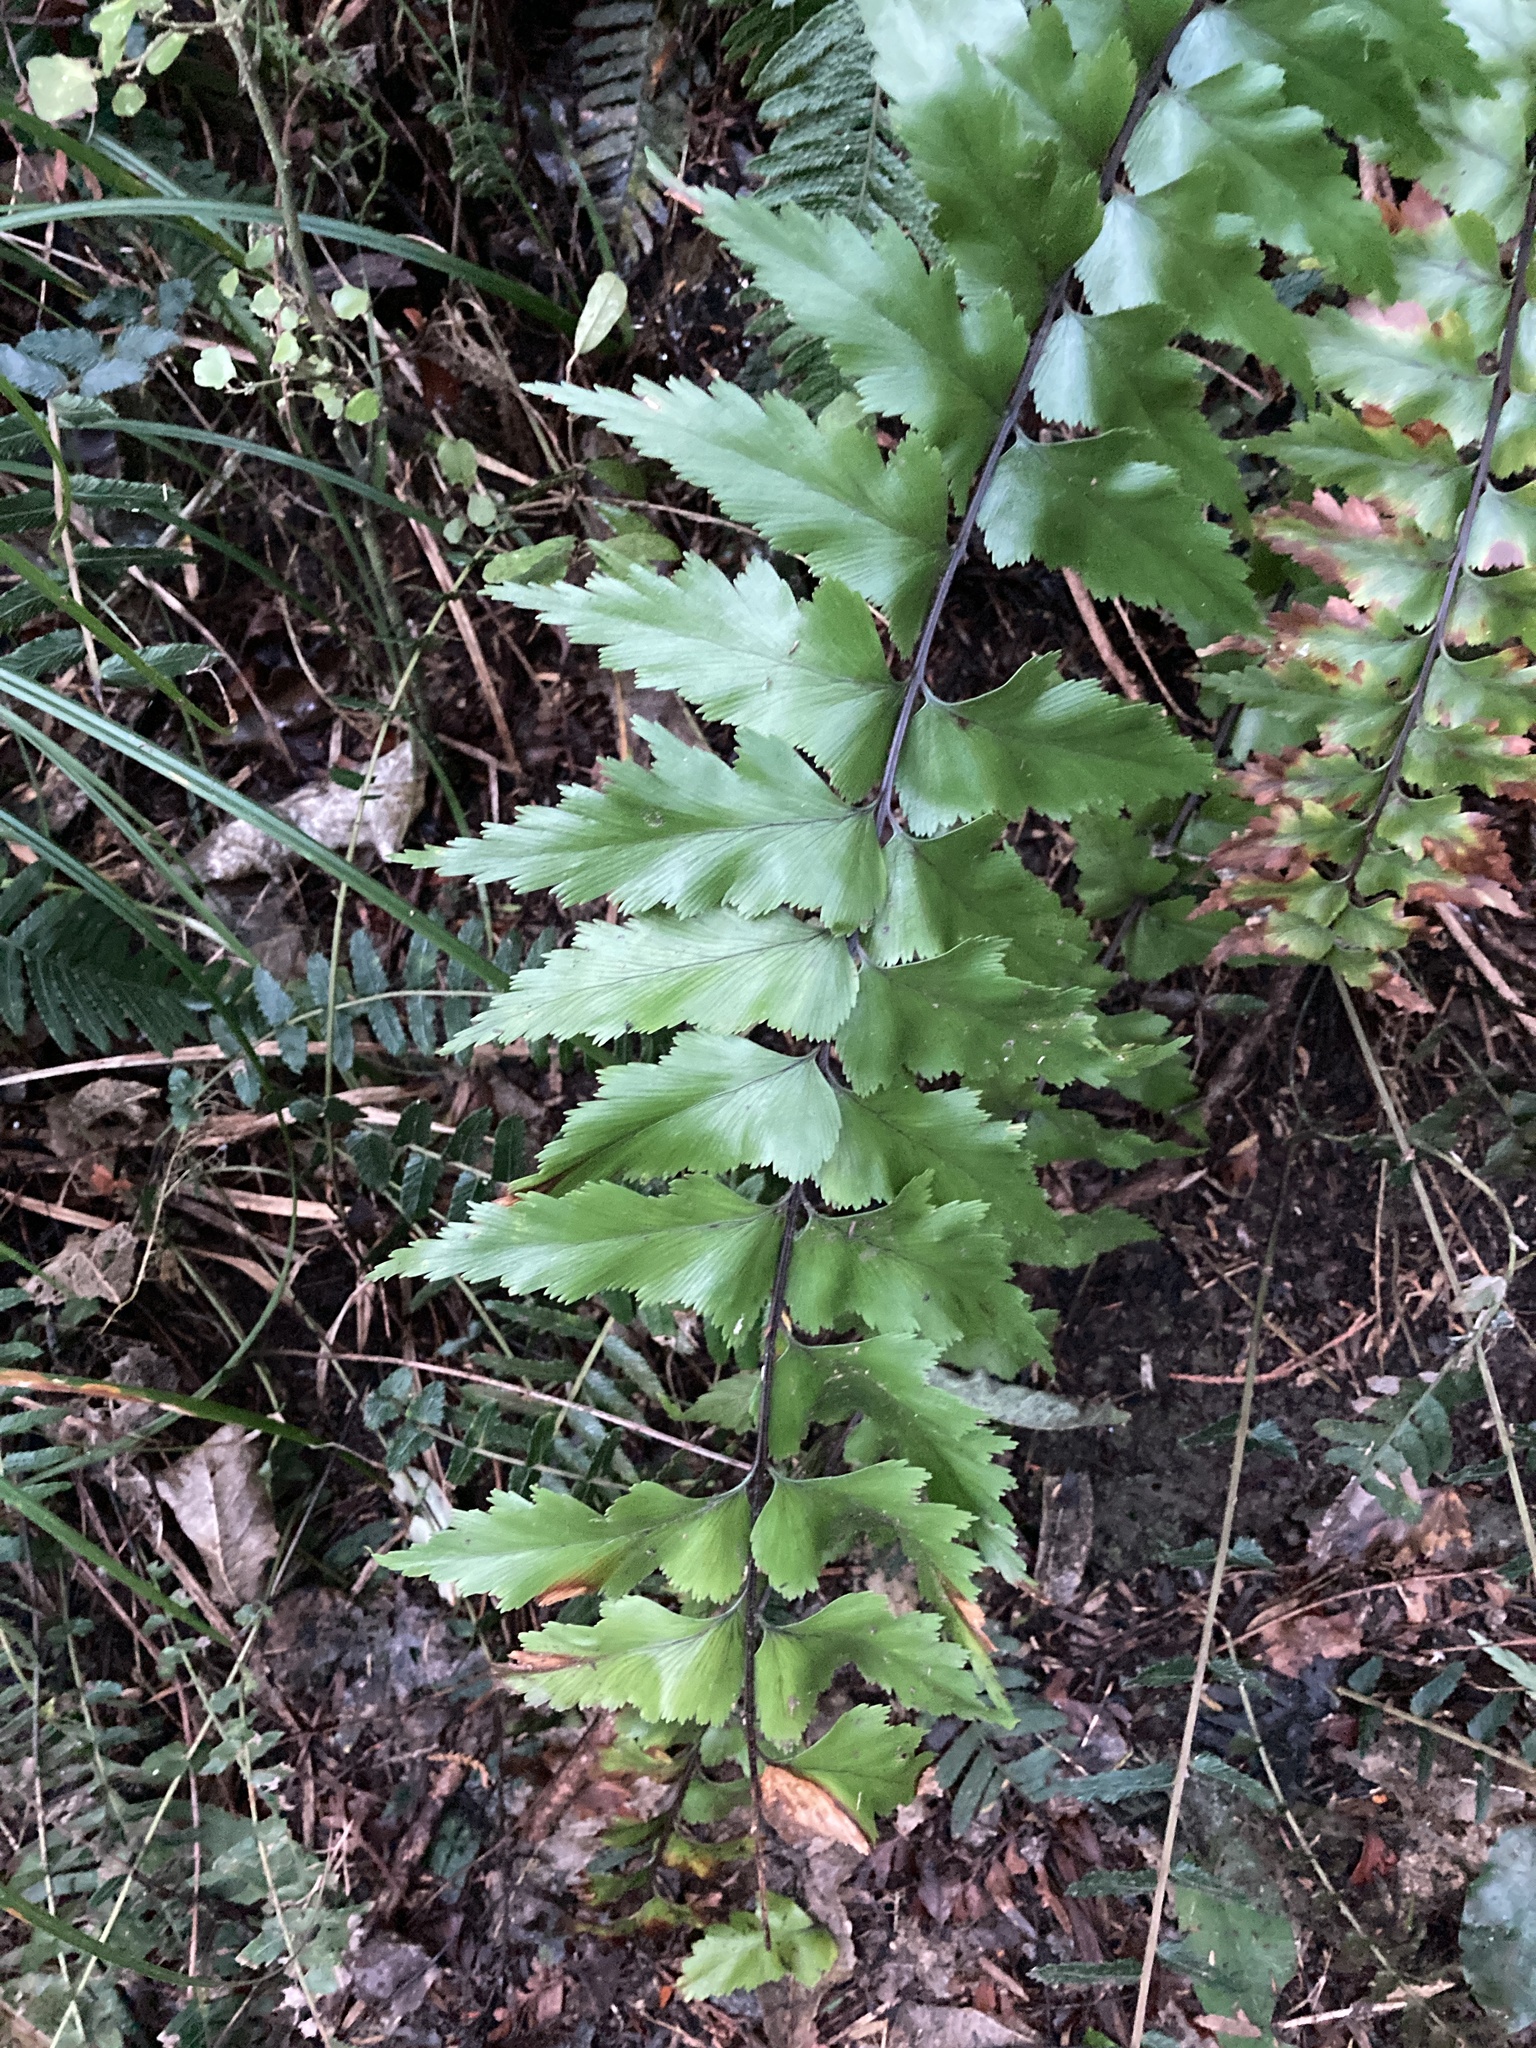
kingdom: Plantae
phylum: Tracheophyta
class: Polypodiopsida
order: Polypodiales
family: Aspleniaceae
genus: Asplenium
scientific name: Asplenium polyodon
